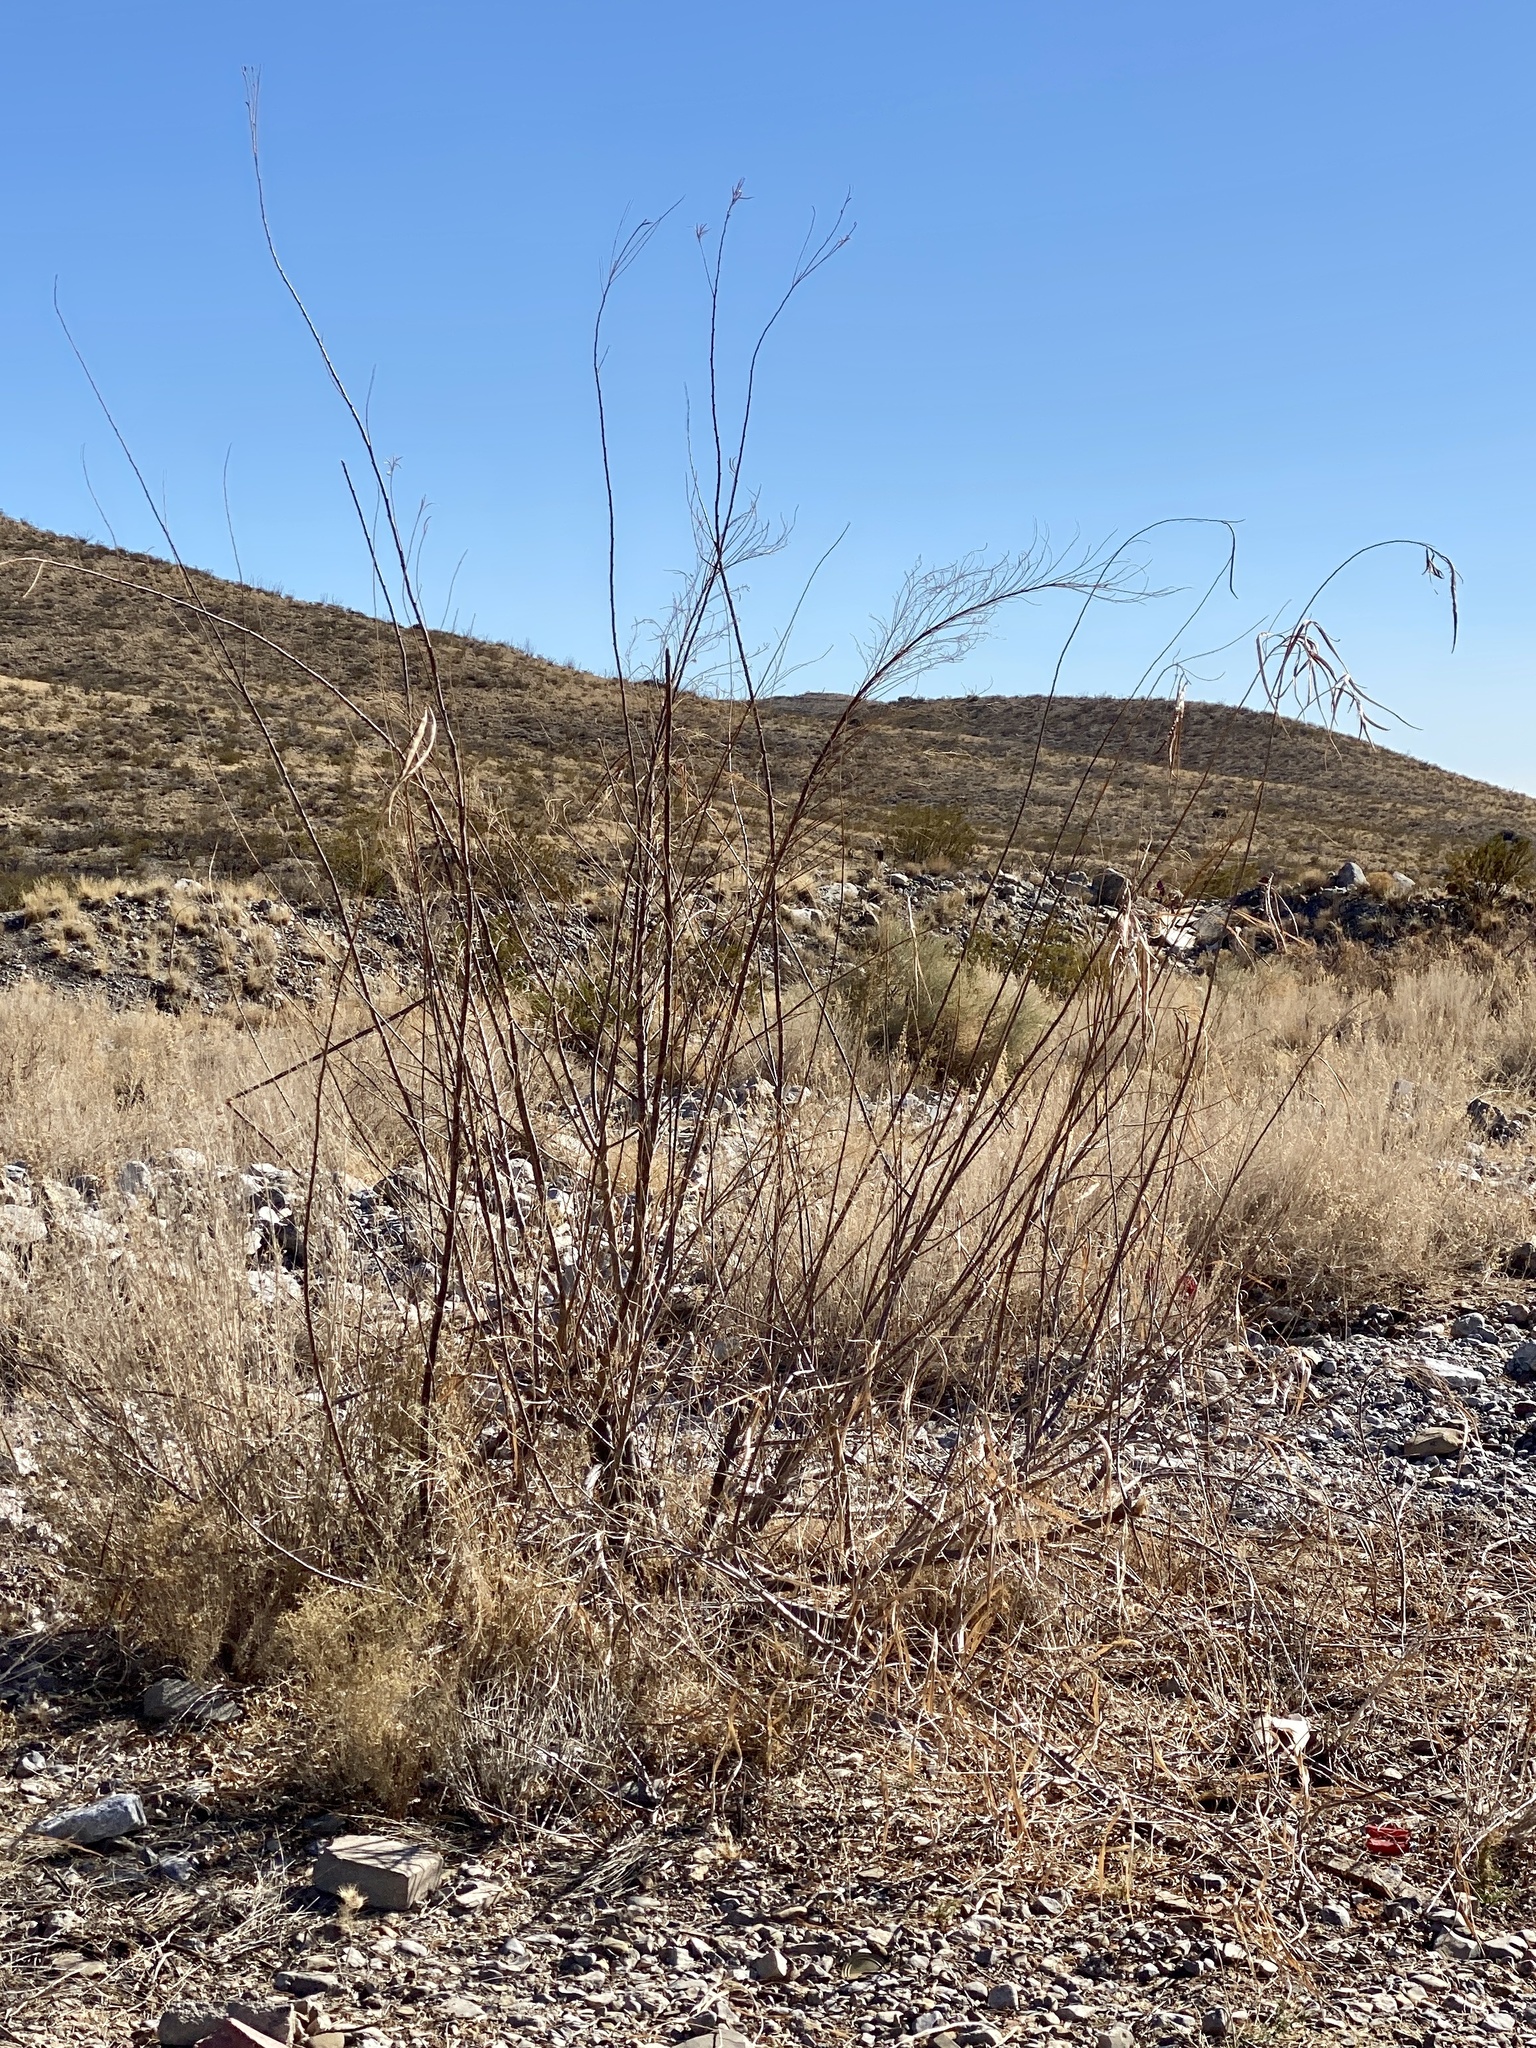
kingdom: Plantae
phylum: Tracheophyta
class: Magnoliopsida
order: Lamiales
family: Bignoniaceae
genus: Chilopsis
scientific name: Chilopsis linearis
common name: Desert-willow
